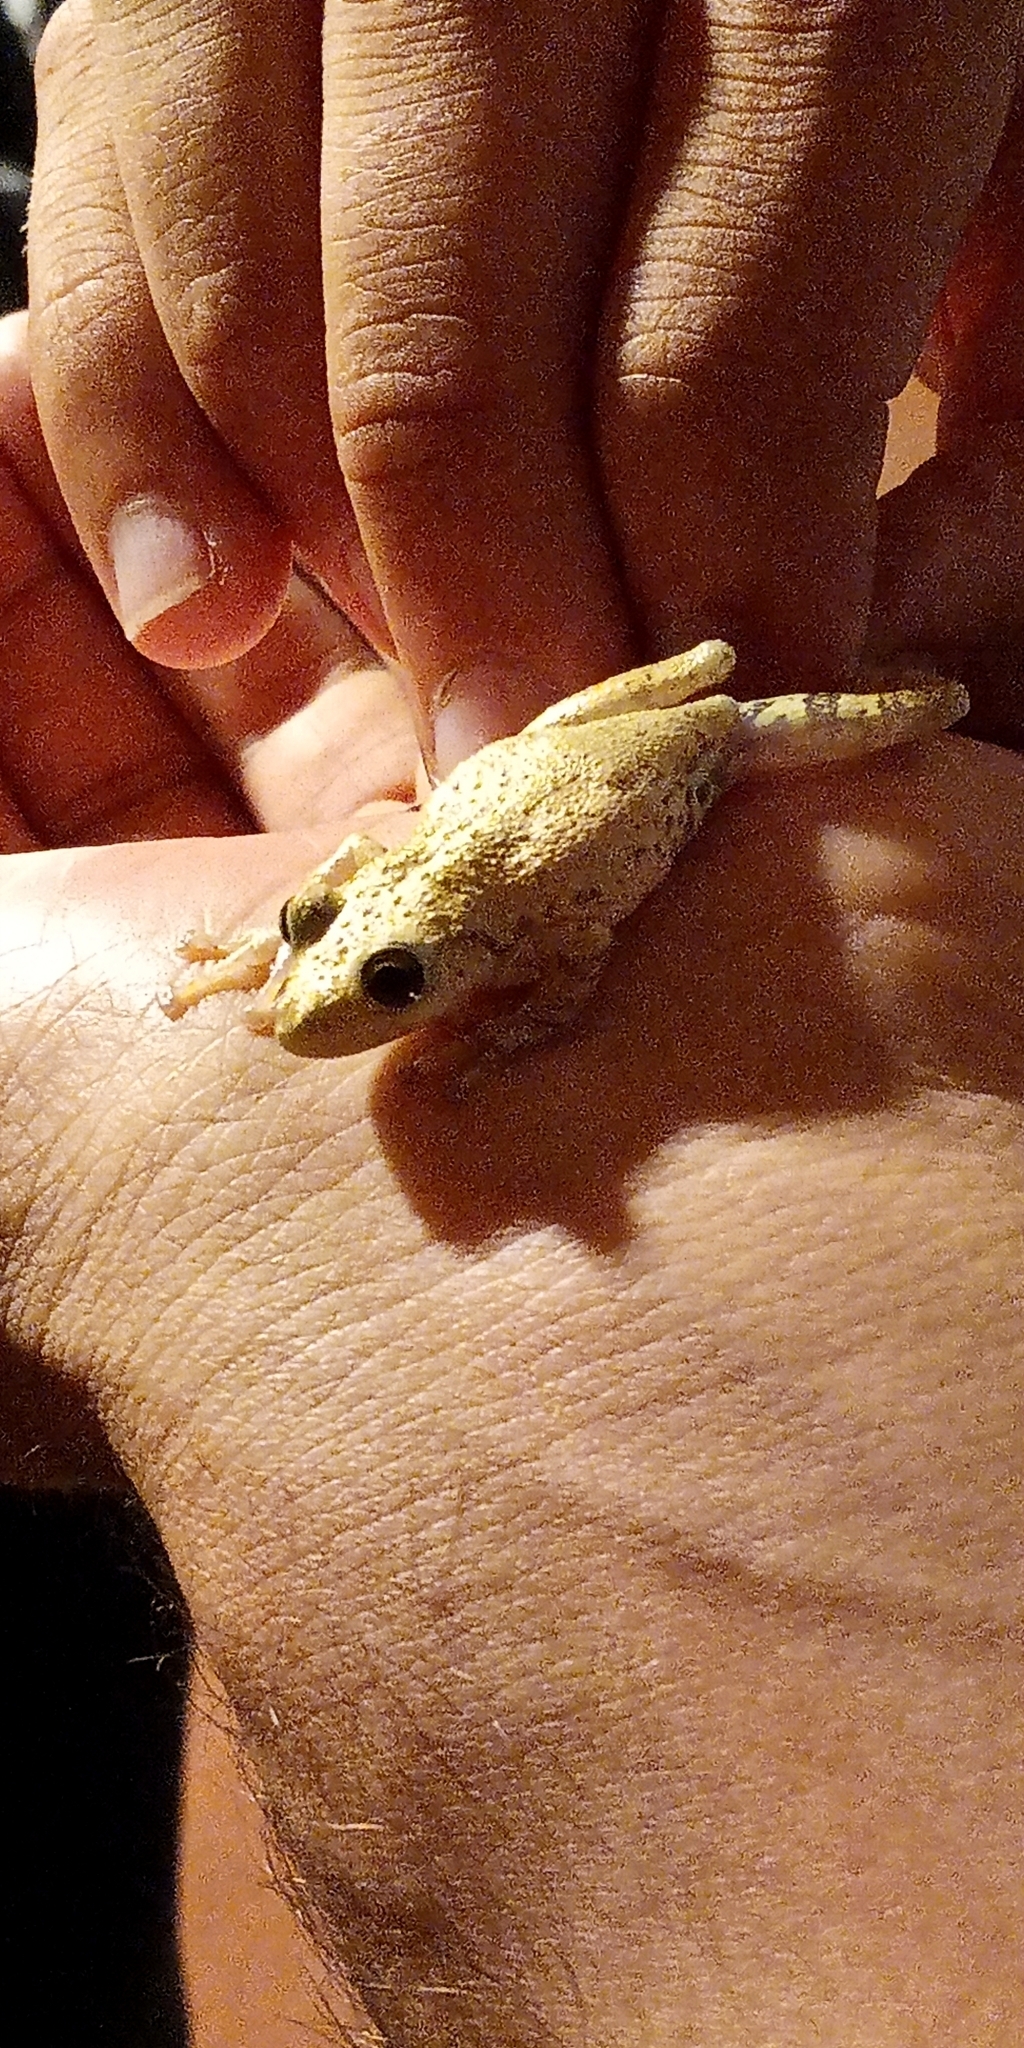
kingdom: Animalia
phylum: Chordata
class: Amphibia
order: Anura
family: Hylidae
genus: Scinax
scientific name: Scinax granulatus
